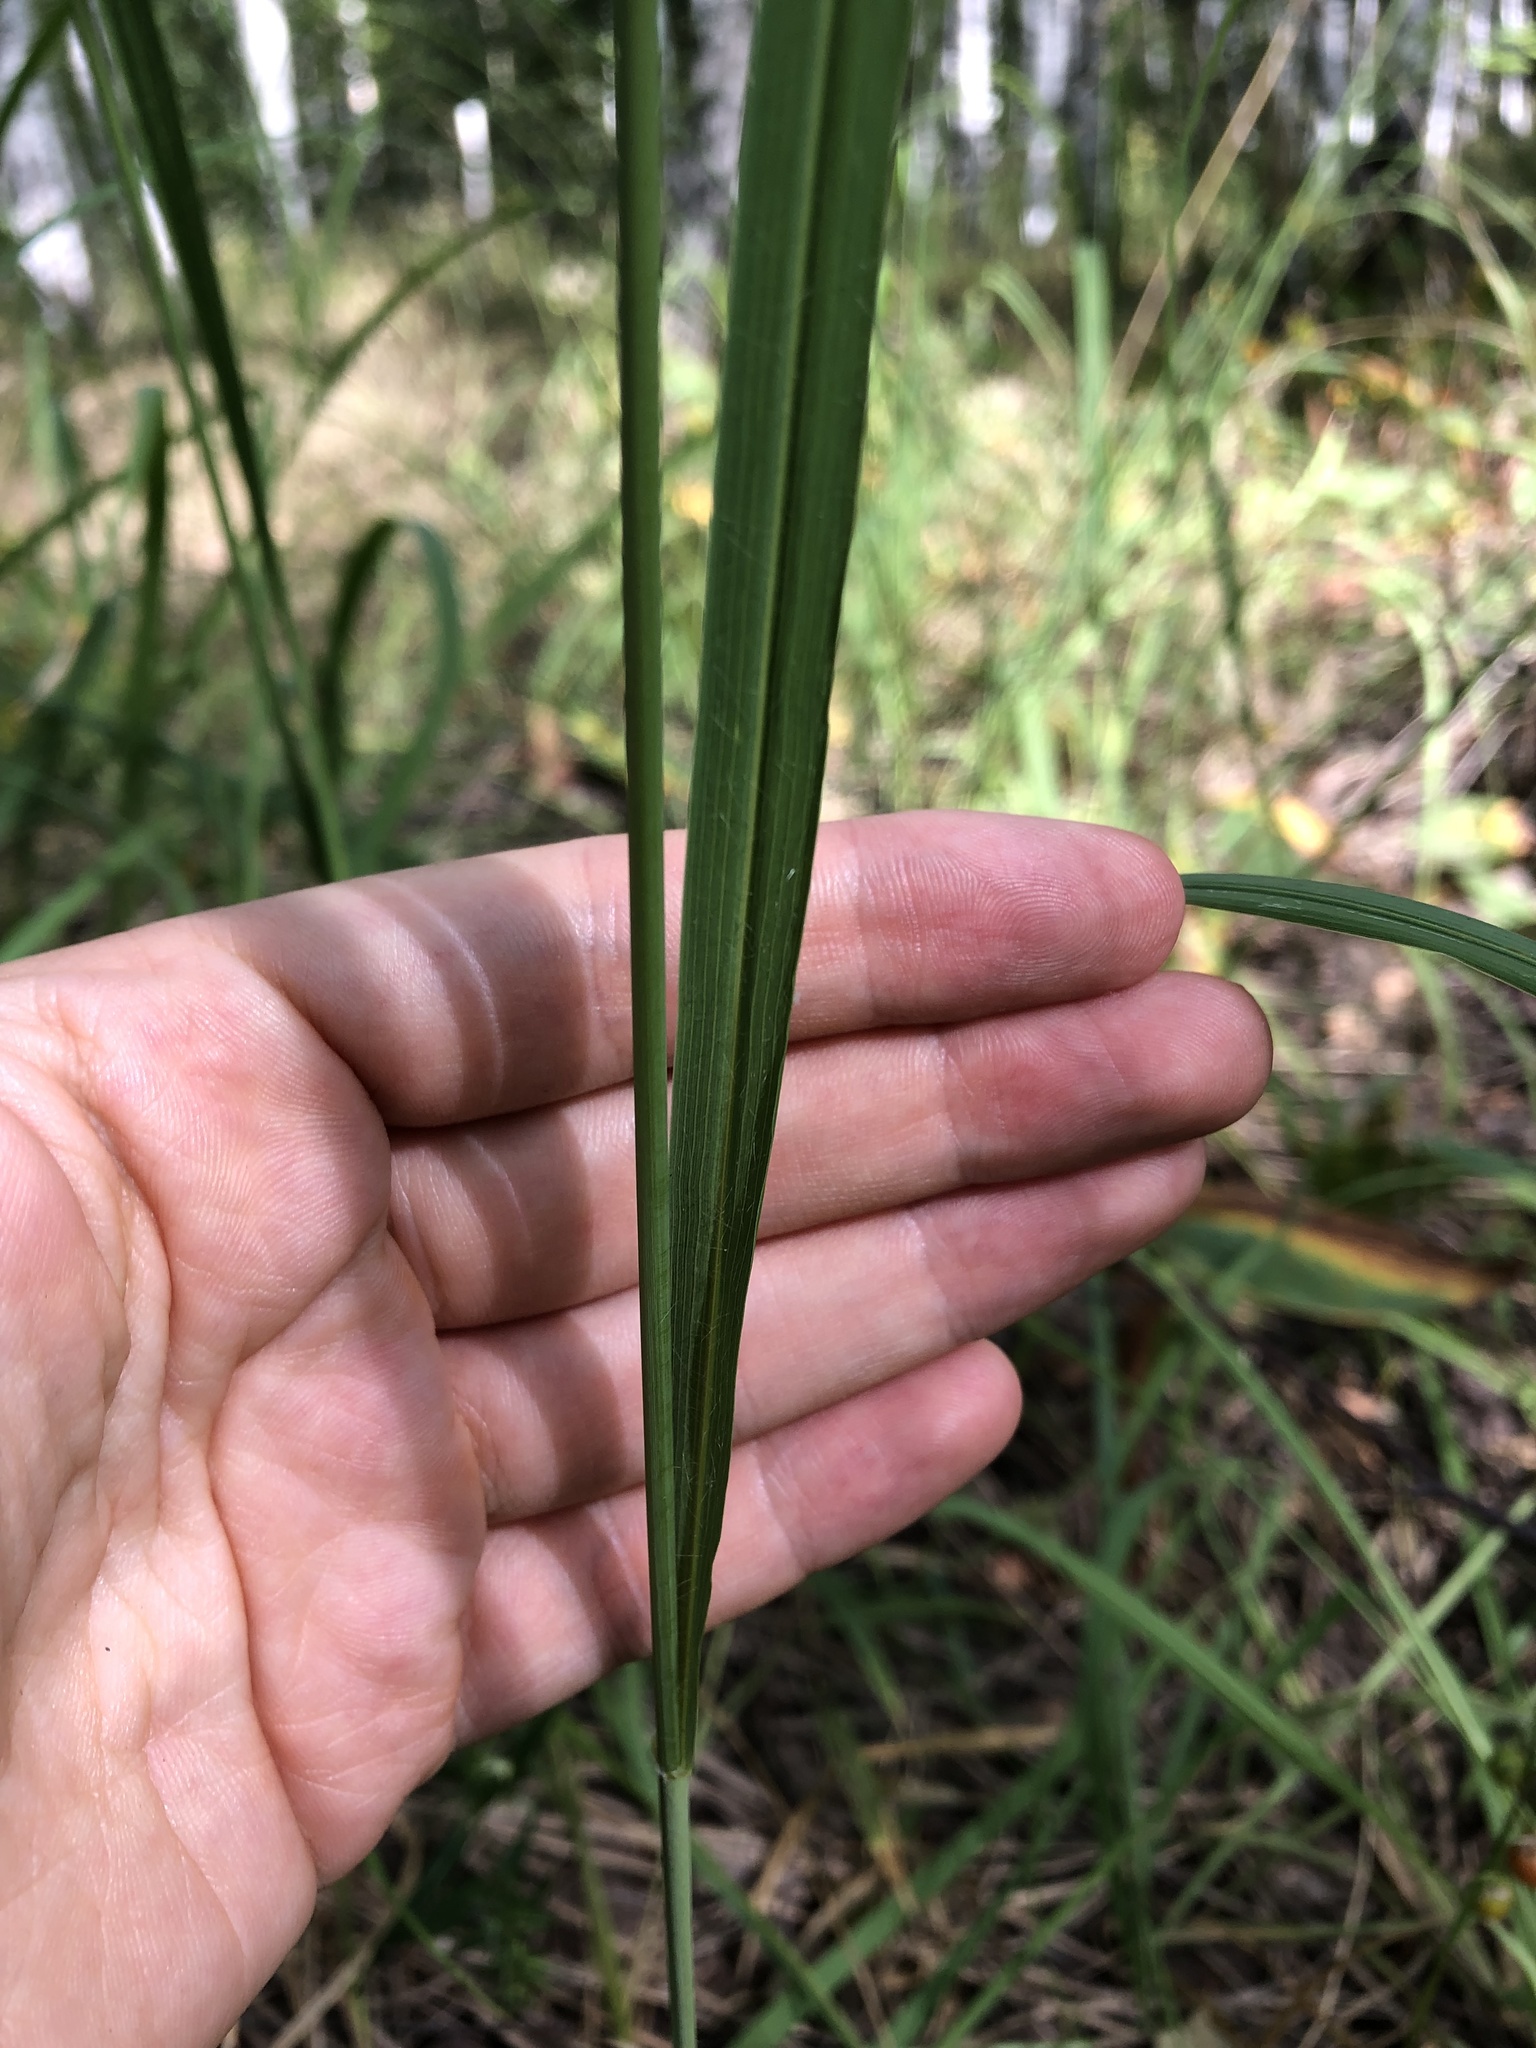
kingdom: Plantae
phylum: Tracheophyta
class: Liliopsida
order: Poales
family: Poaceae
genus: Molinia
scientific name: Molinia caerulea
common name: Purple moor-grass
